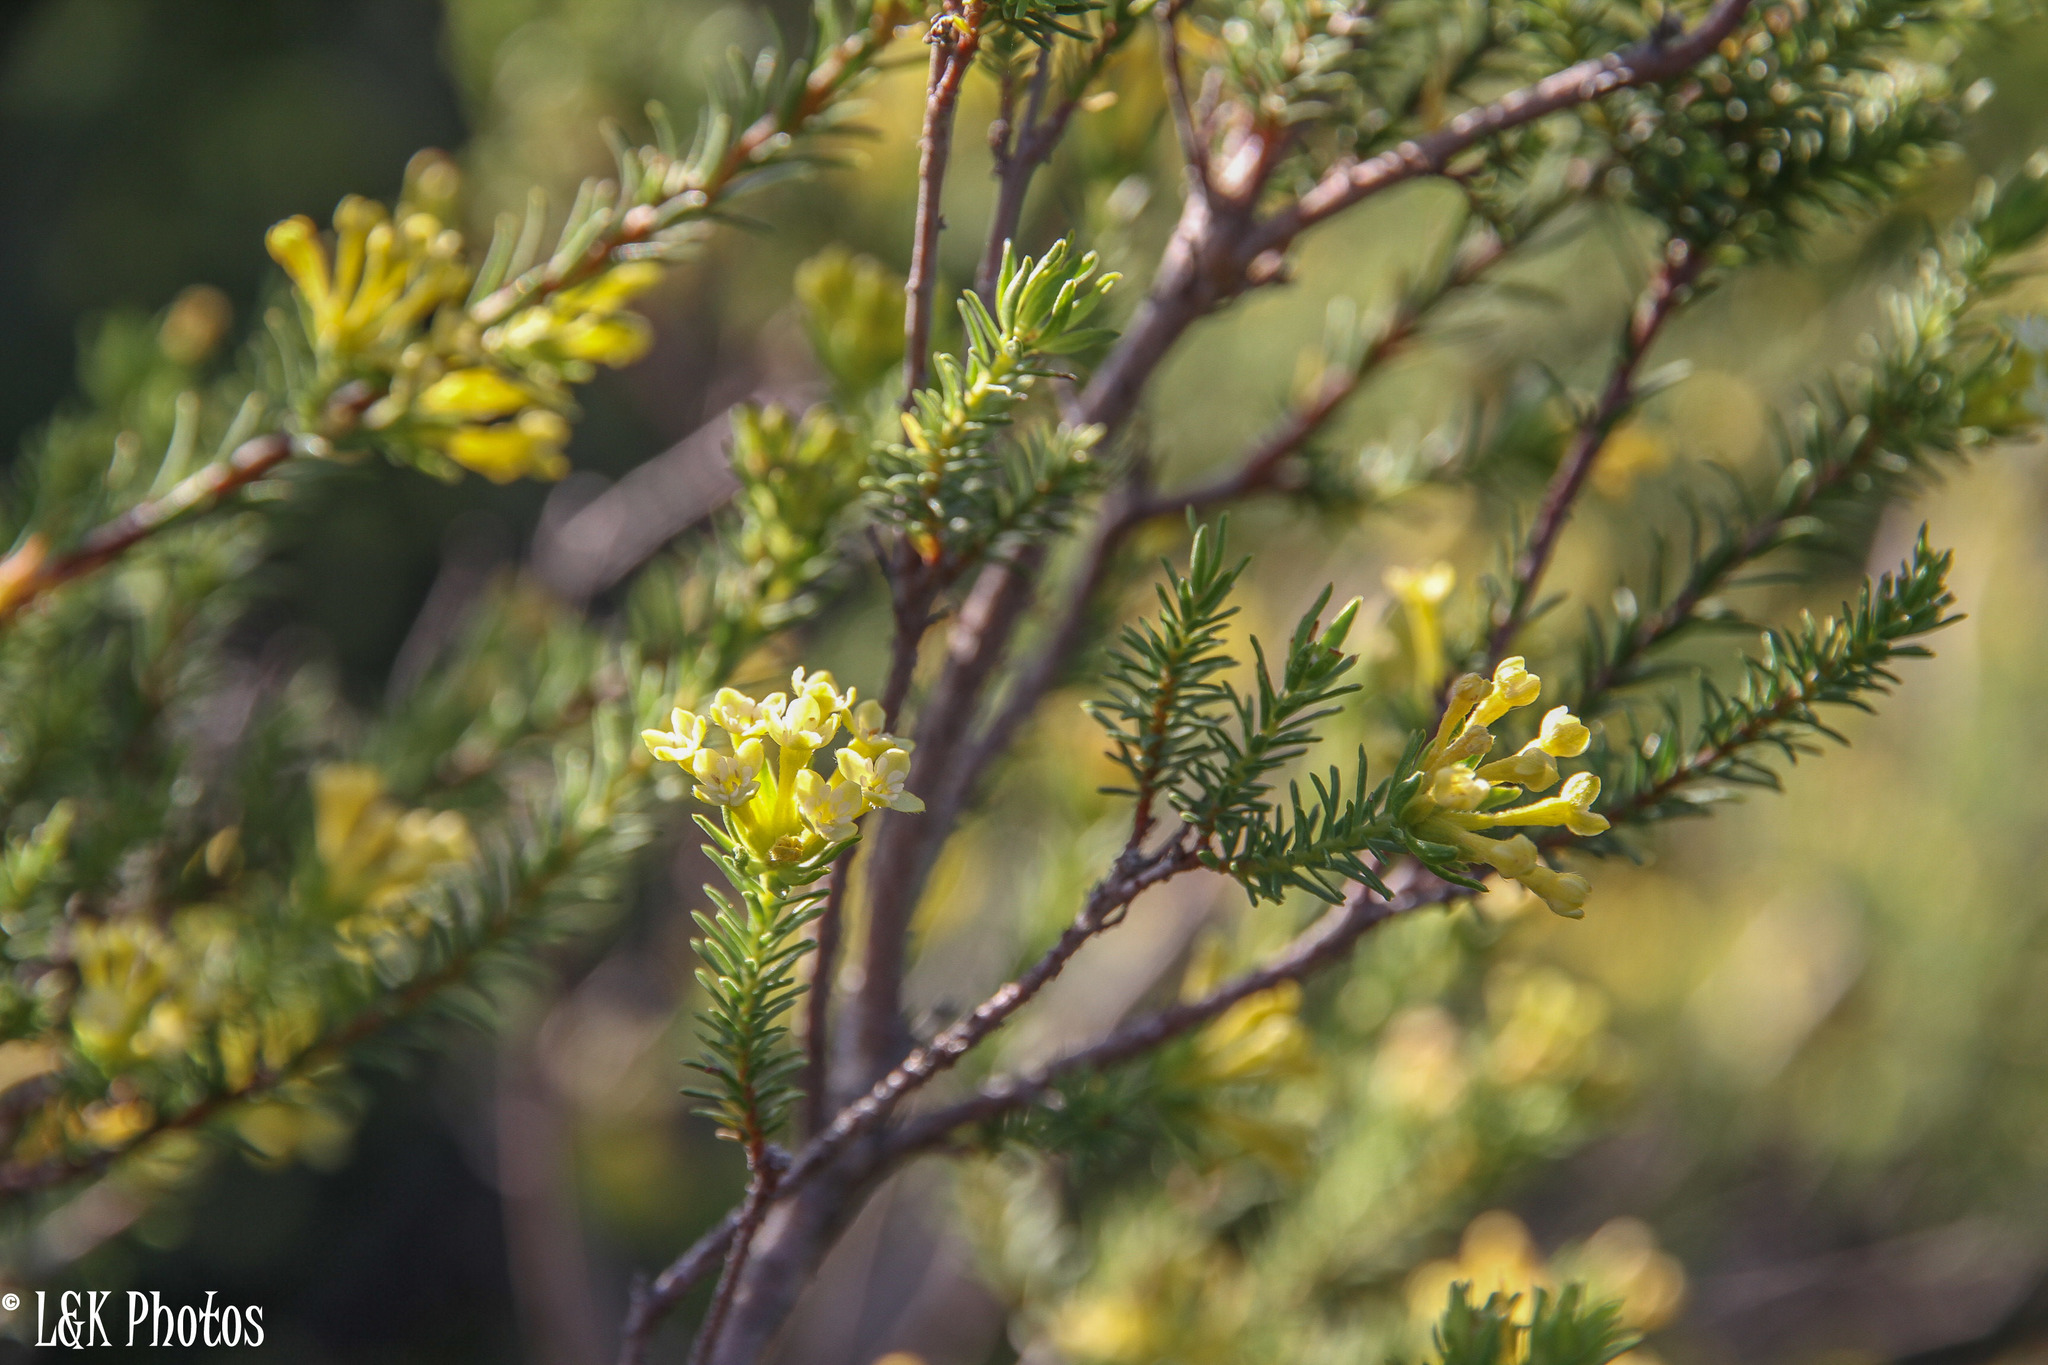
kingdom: Plantae
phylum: Tracheophyta
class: Magnoliopsida
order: Malvales
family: Thymelaeaceae
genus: Gnidia
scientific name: Gnidia squarrosa
